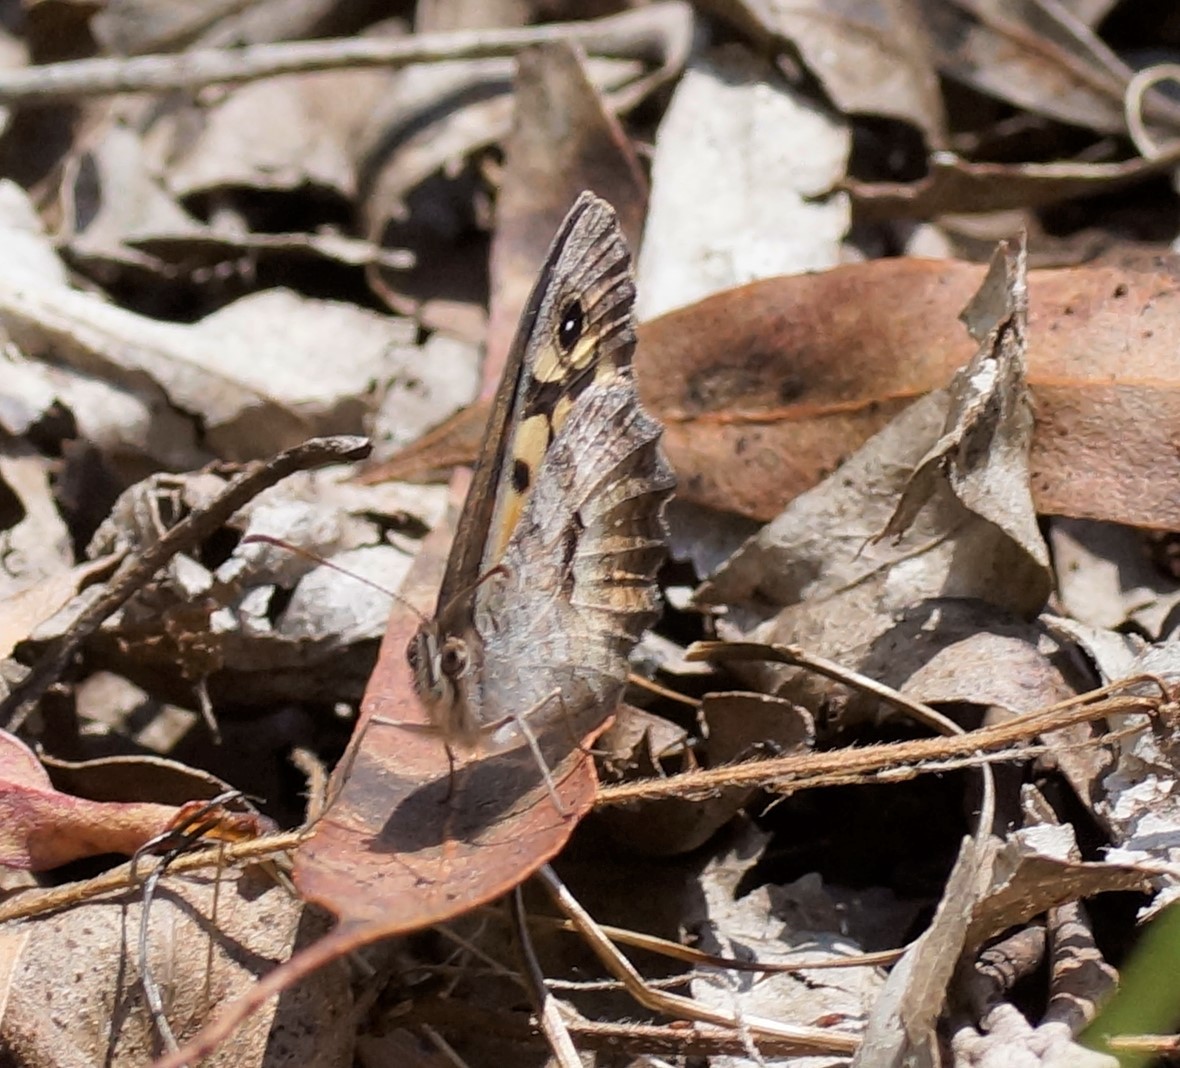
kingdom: Animalia
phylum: Arthropoda
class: Insecta
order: Lepidoptera
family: Nymphalidae
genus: Geitoneura
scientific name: Geitoneura klugii
